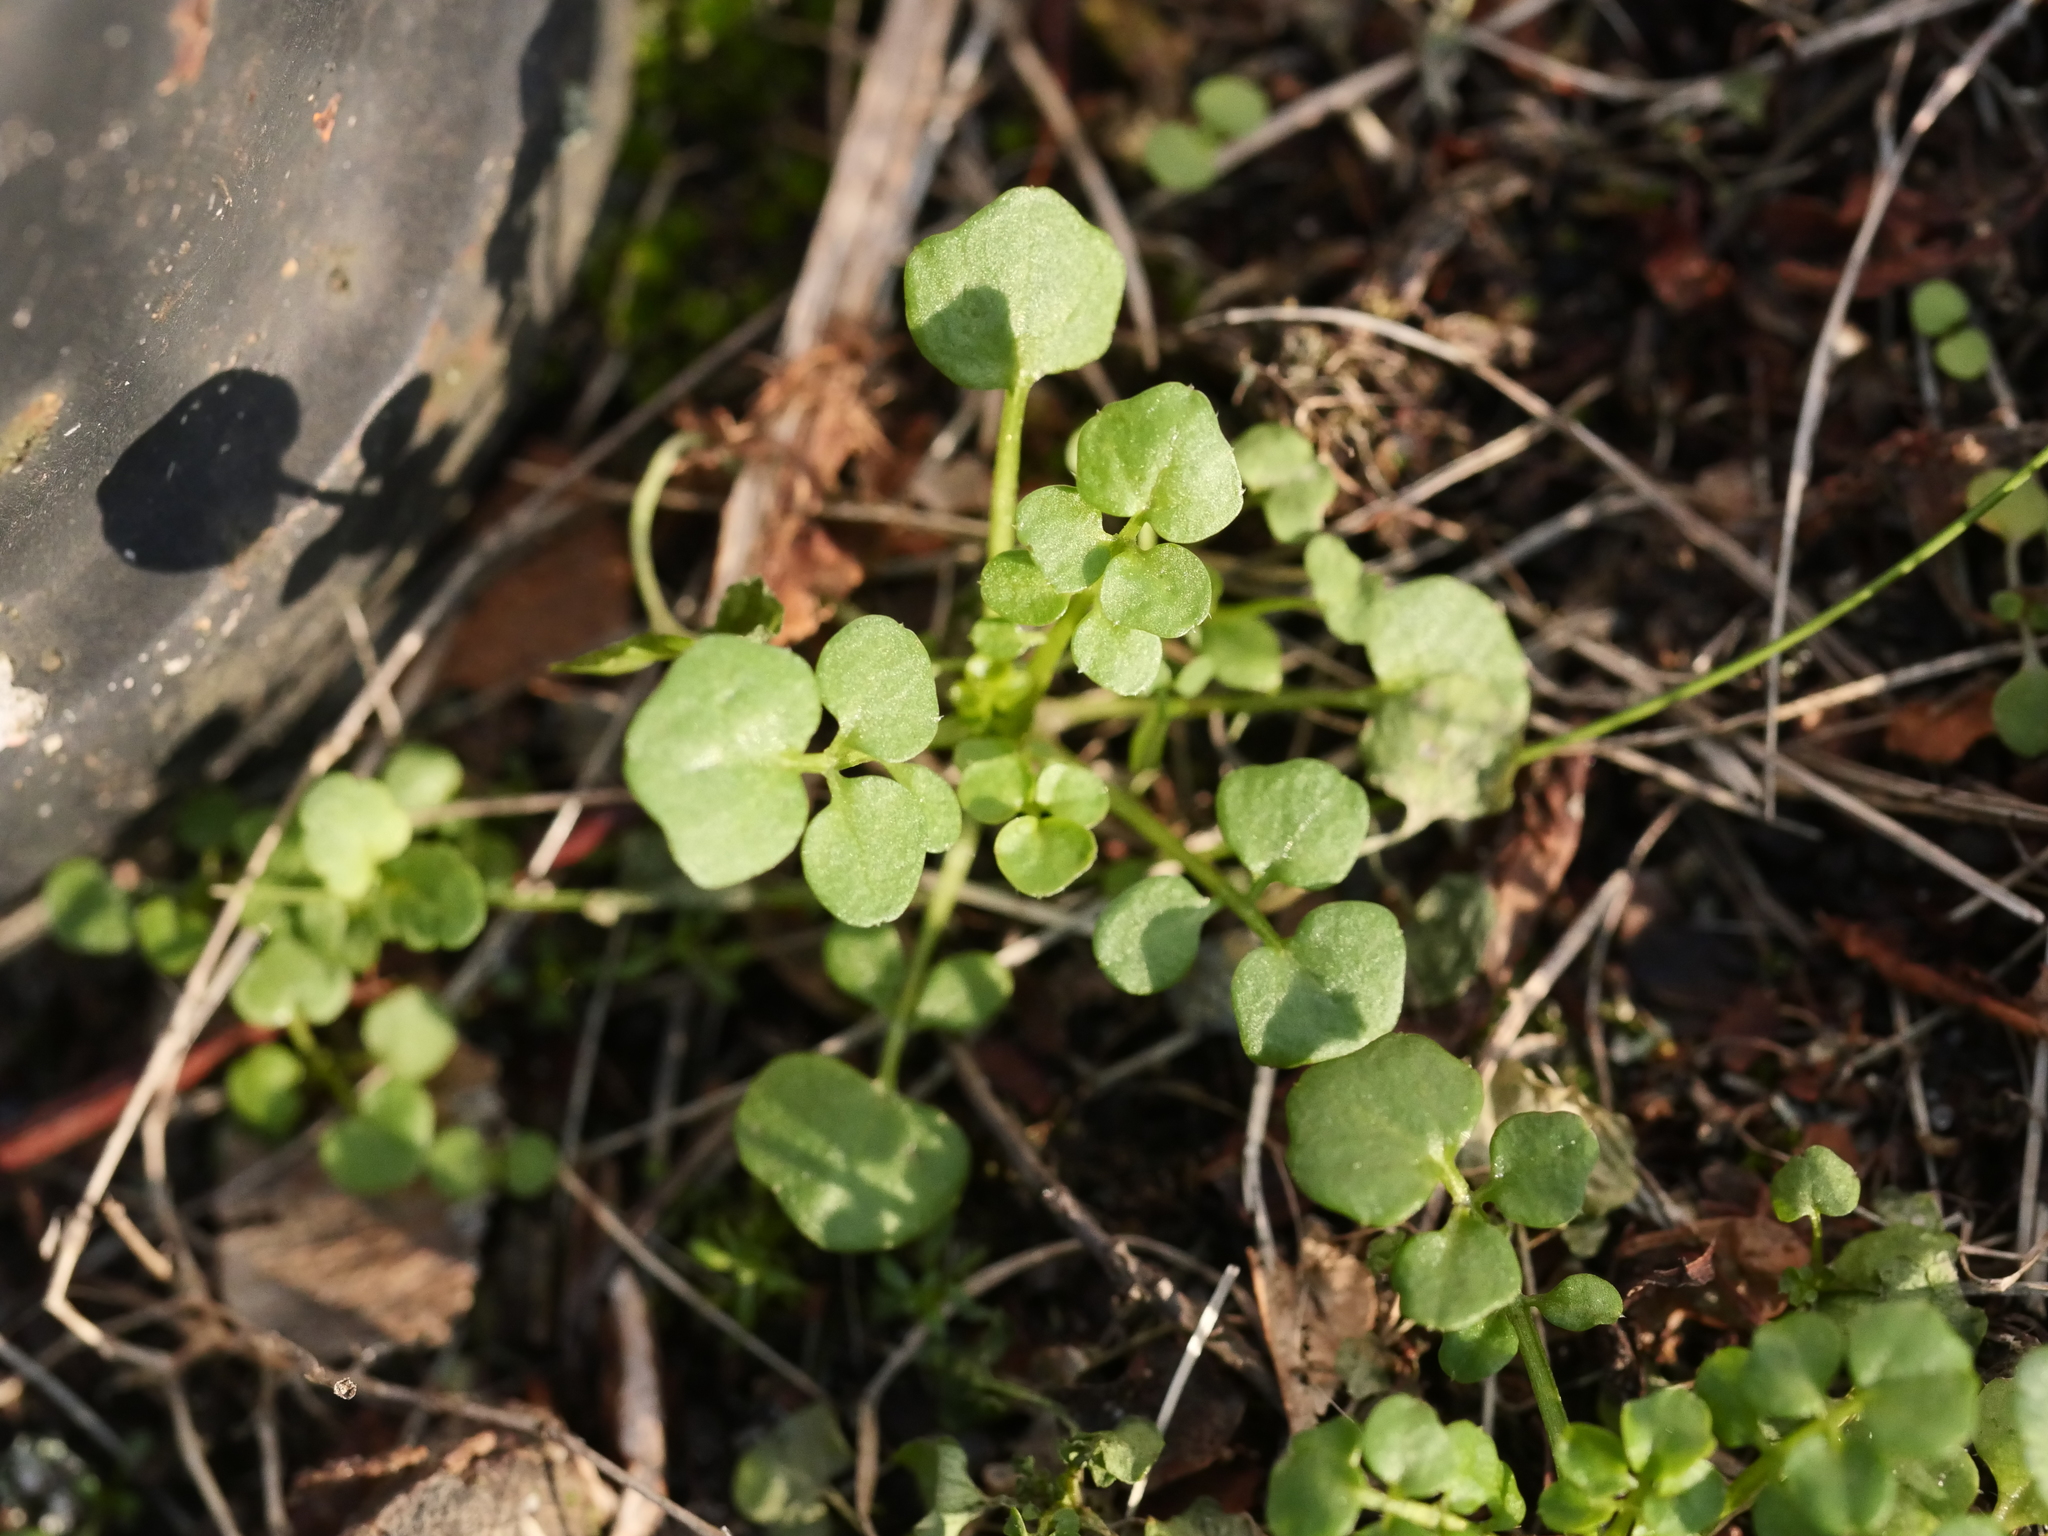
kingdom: Plantae
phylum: Tracheophyta
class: Magnoliopsida
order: Brassicales
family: Brassicaceae
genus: Cardamine
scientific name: Cardamine hirsuta
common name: Hairy bittercress
